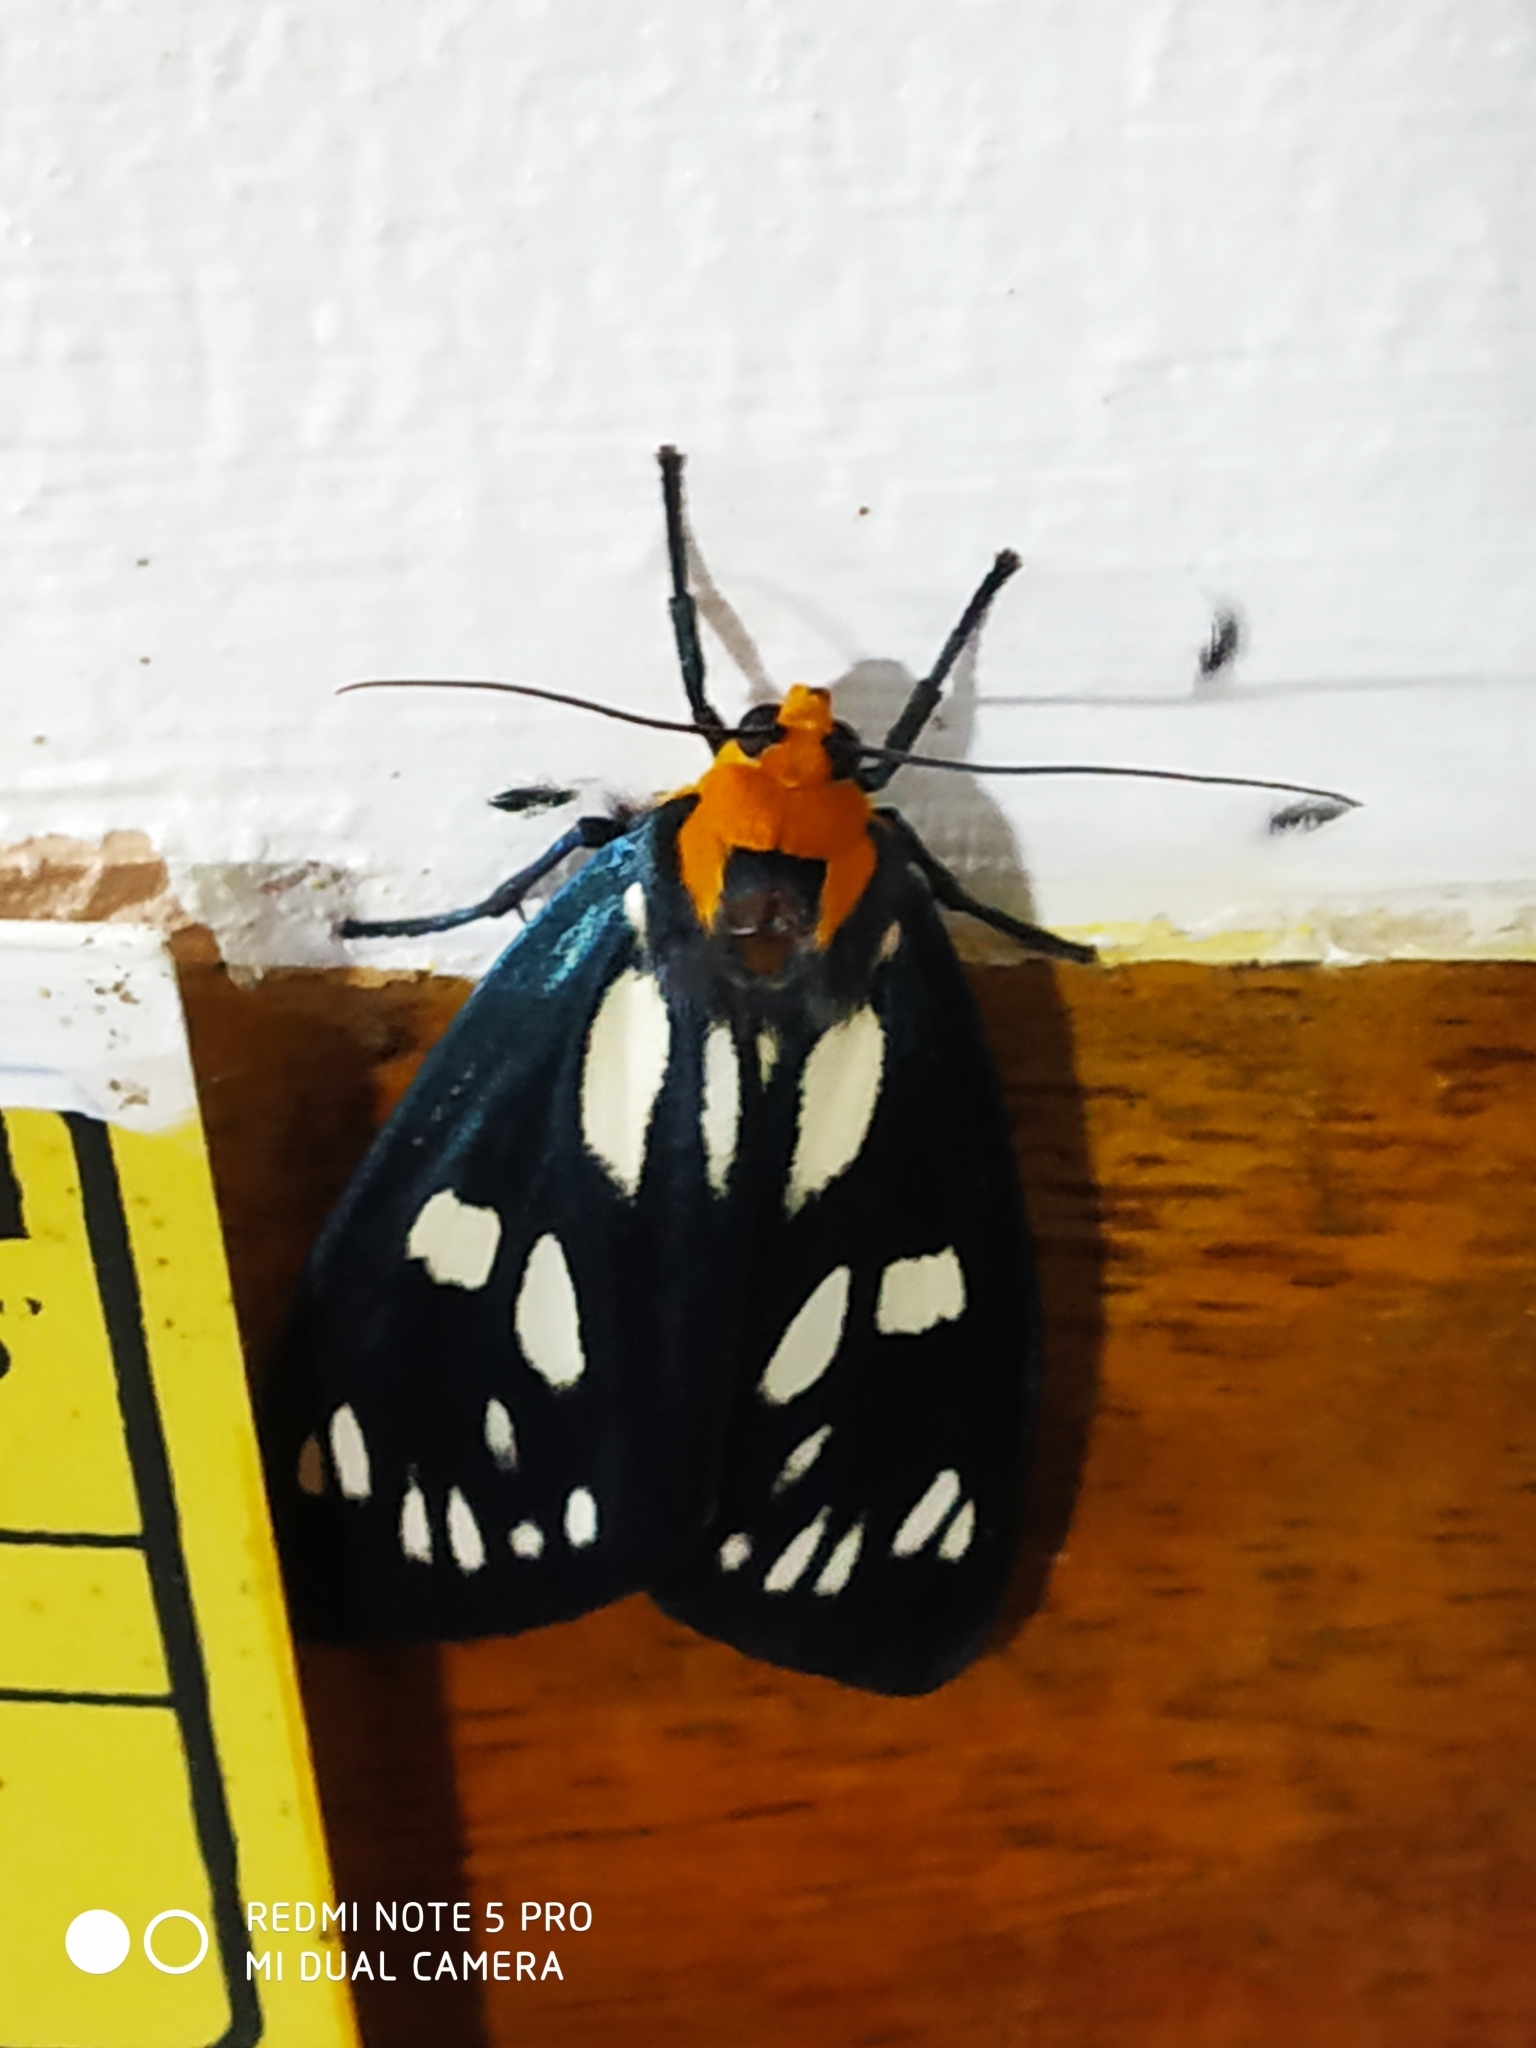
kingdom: Animalia
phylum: Arthropoda
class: Insecta
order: Lepidoptera
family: Erebidae
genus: Macrobrochis
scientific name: Macrobrochis gigas
